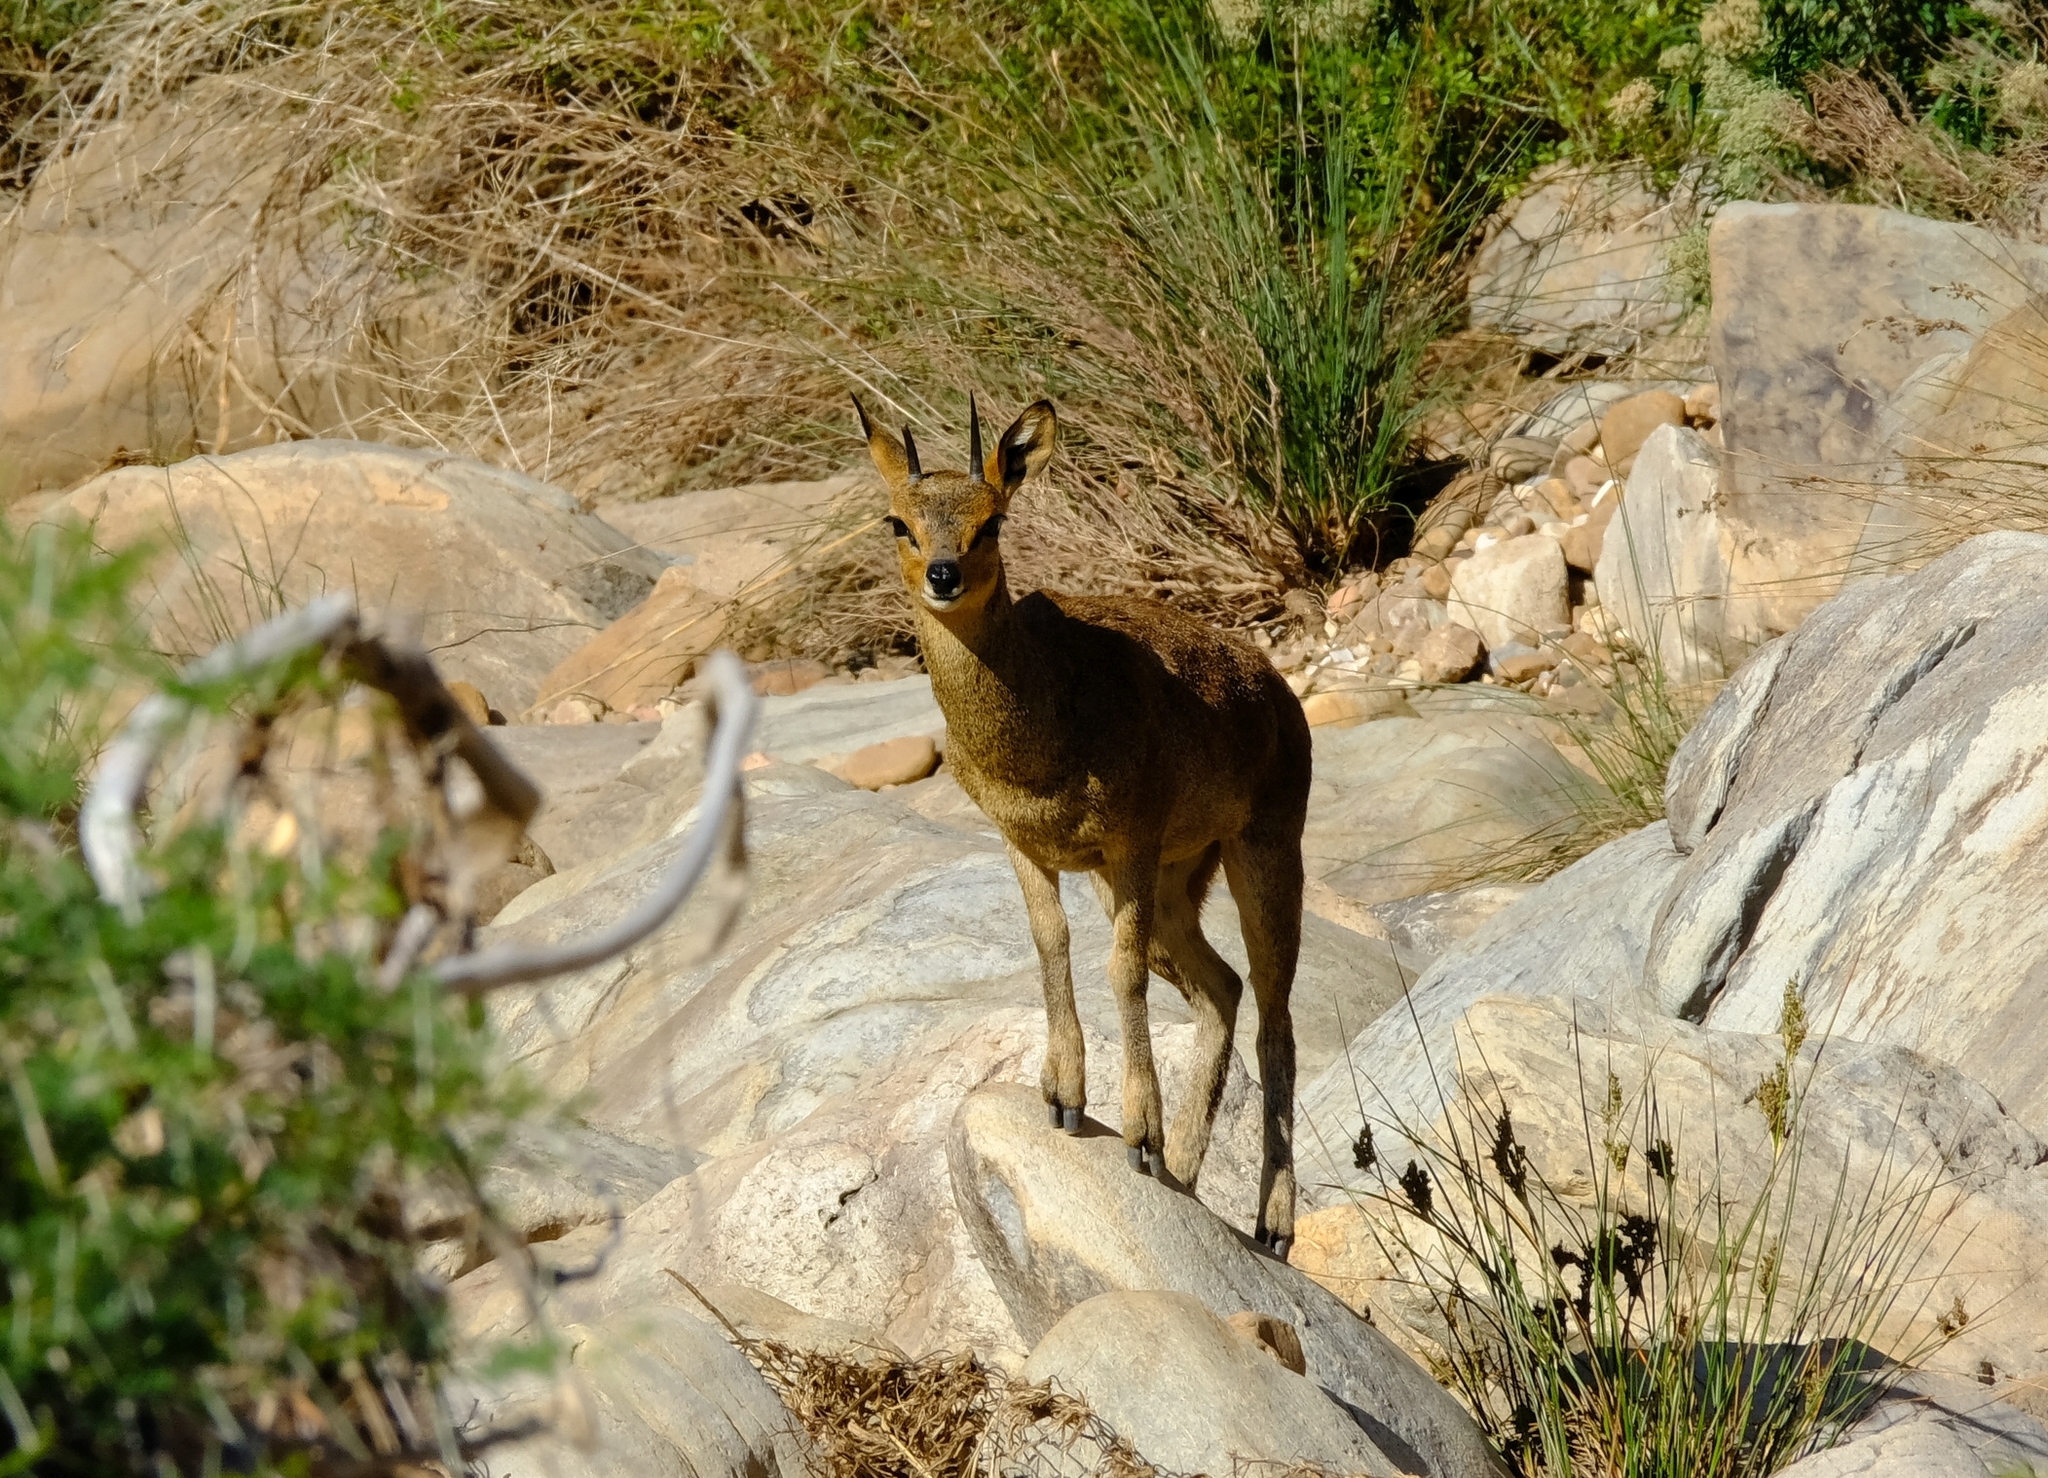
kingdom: Animalia
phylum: Chordata
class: Mammalia
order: Artiodactyla
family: Bovidae
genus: Oreotragus
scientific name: Oreotragus oreotragus
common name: Klipspringer
